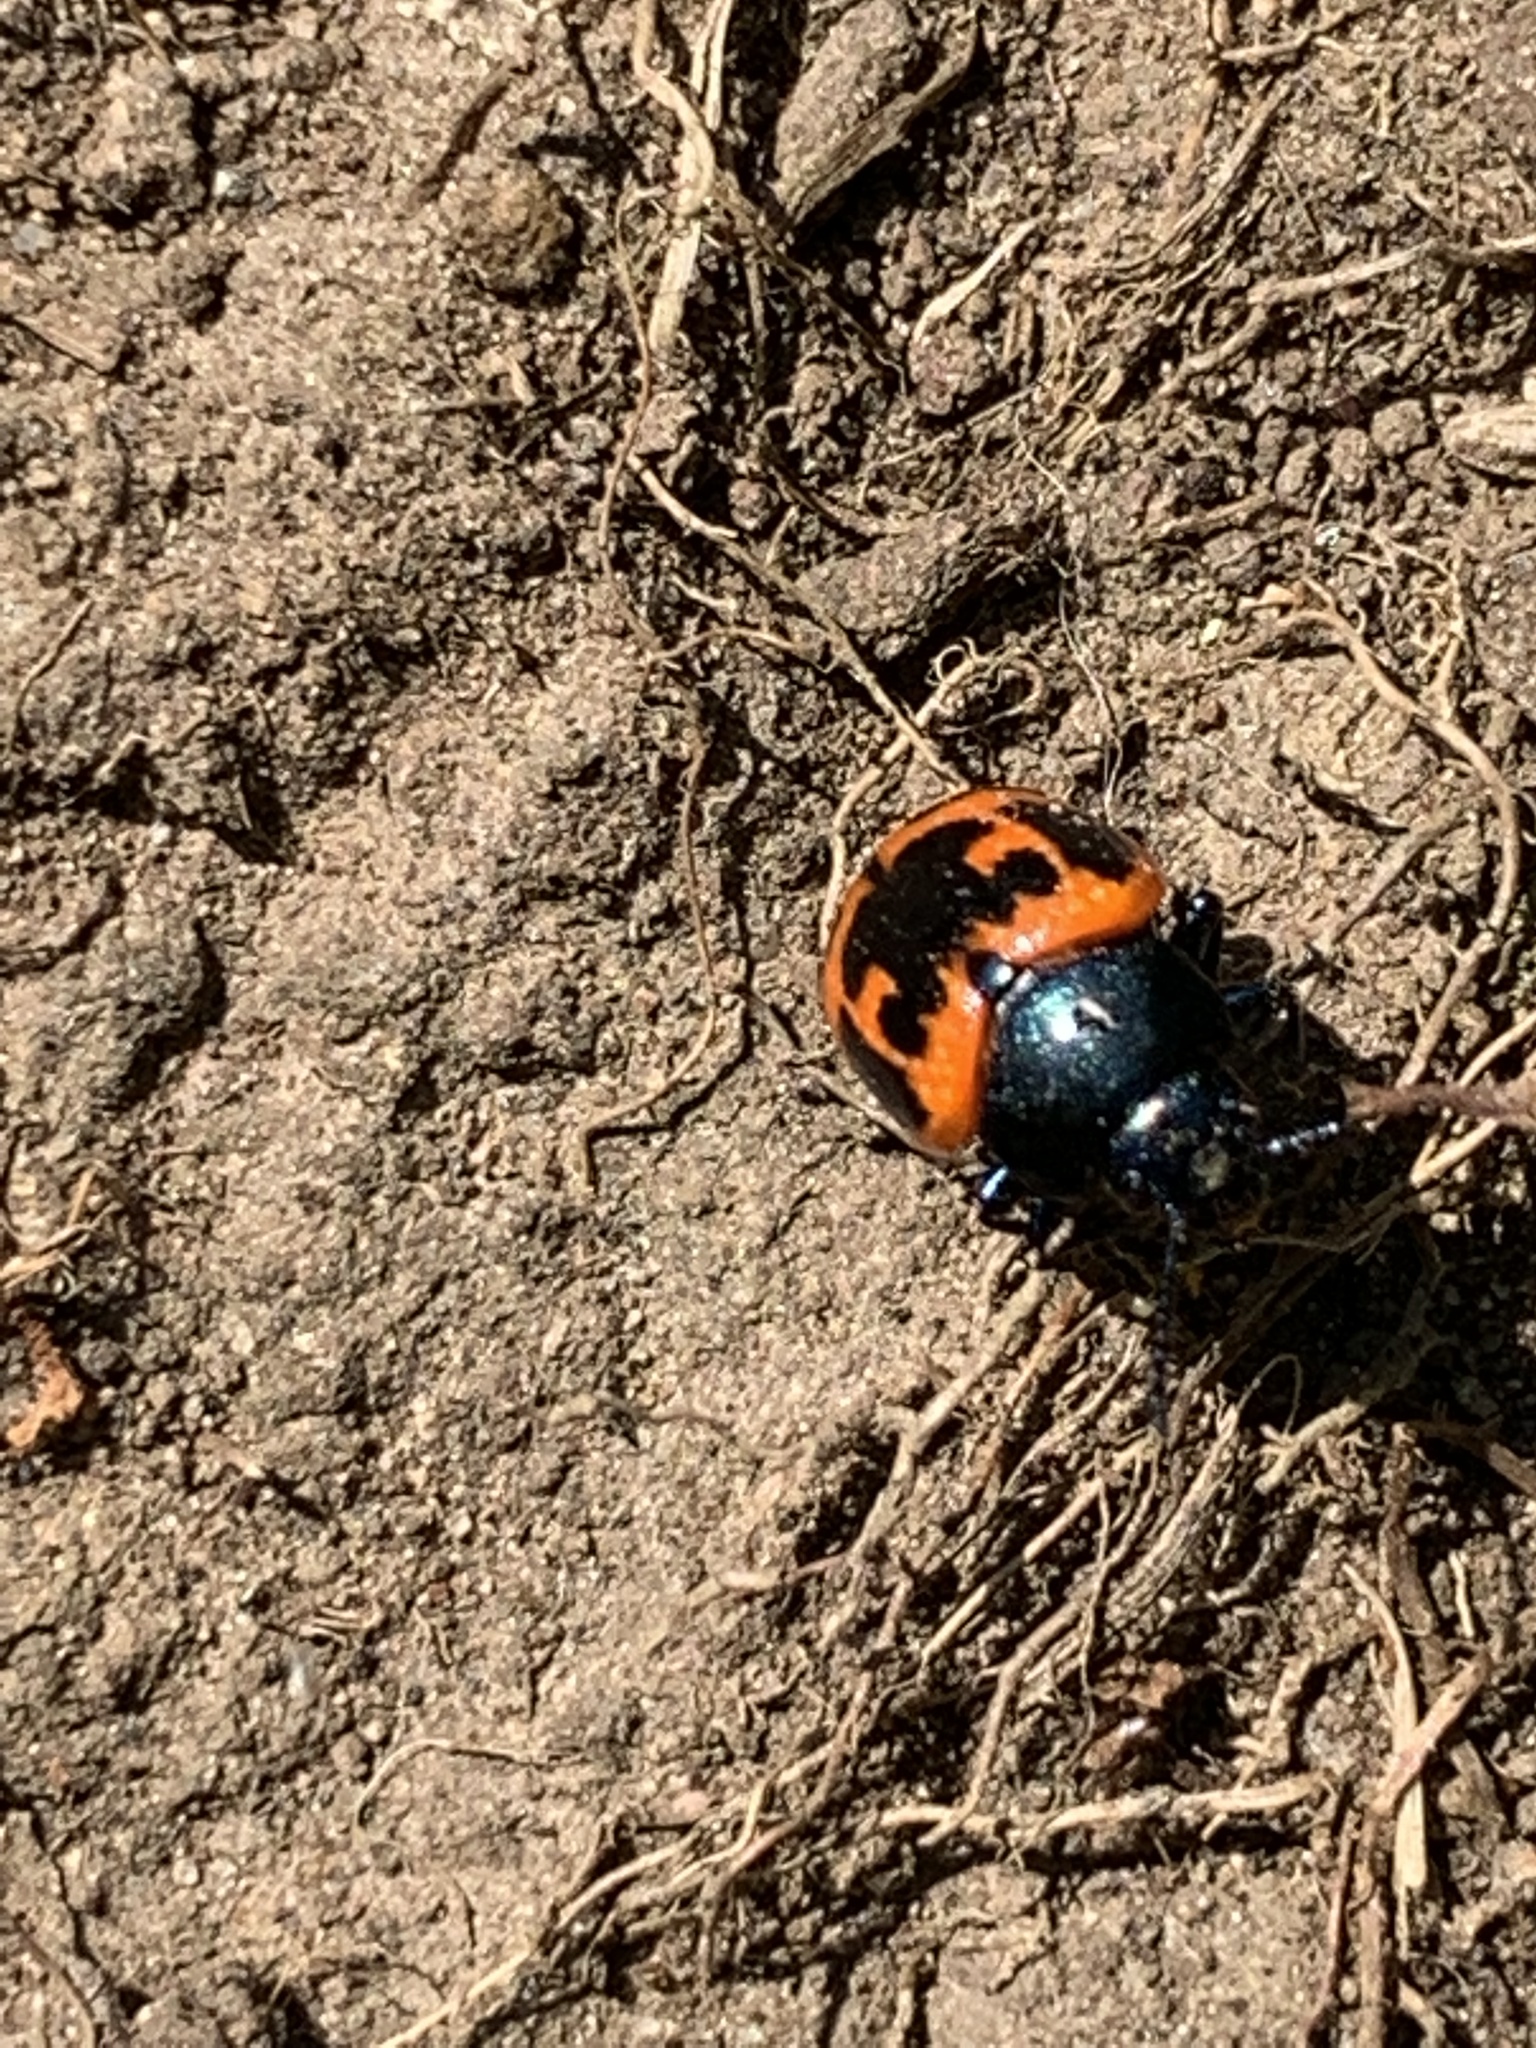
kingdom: Animalia
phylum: Arthropoda
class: Insecta
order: Coleoptera
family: Chrysomelidae
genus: Labidomera
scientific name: Labidomera clivicollis
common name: Swamp milkweed leaf beetle
